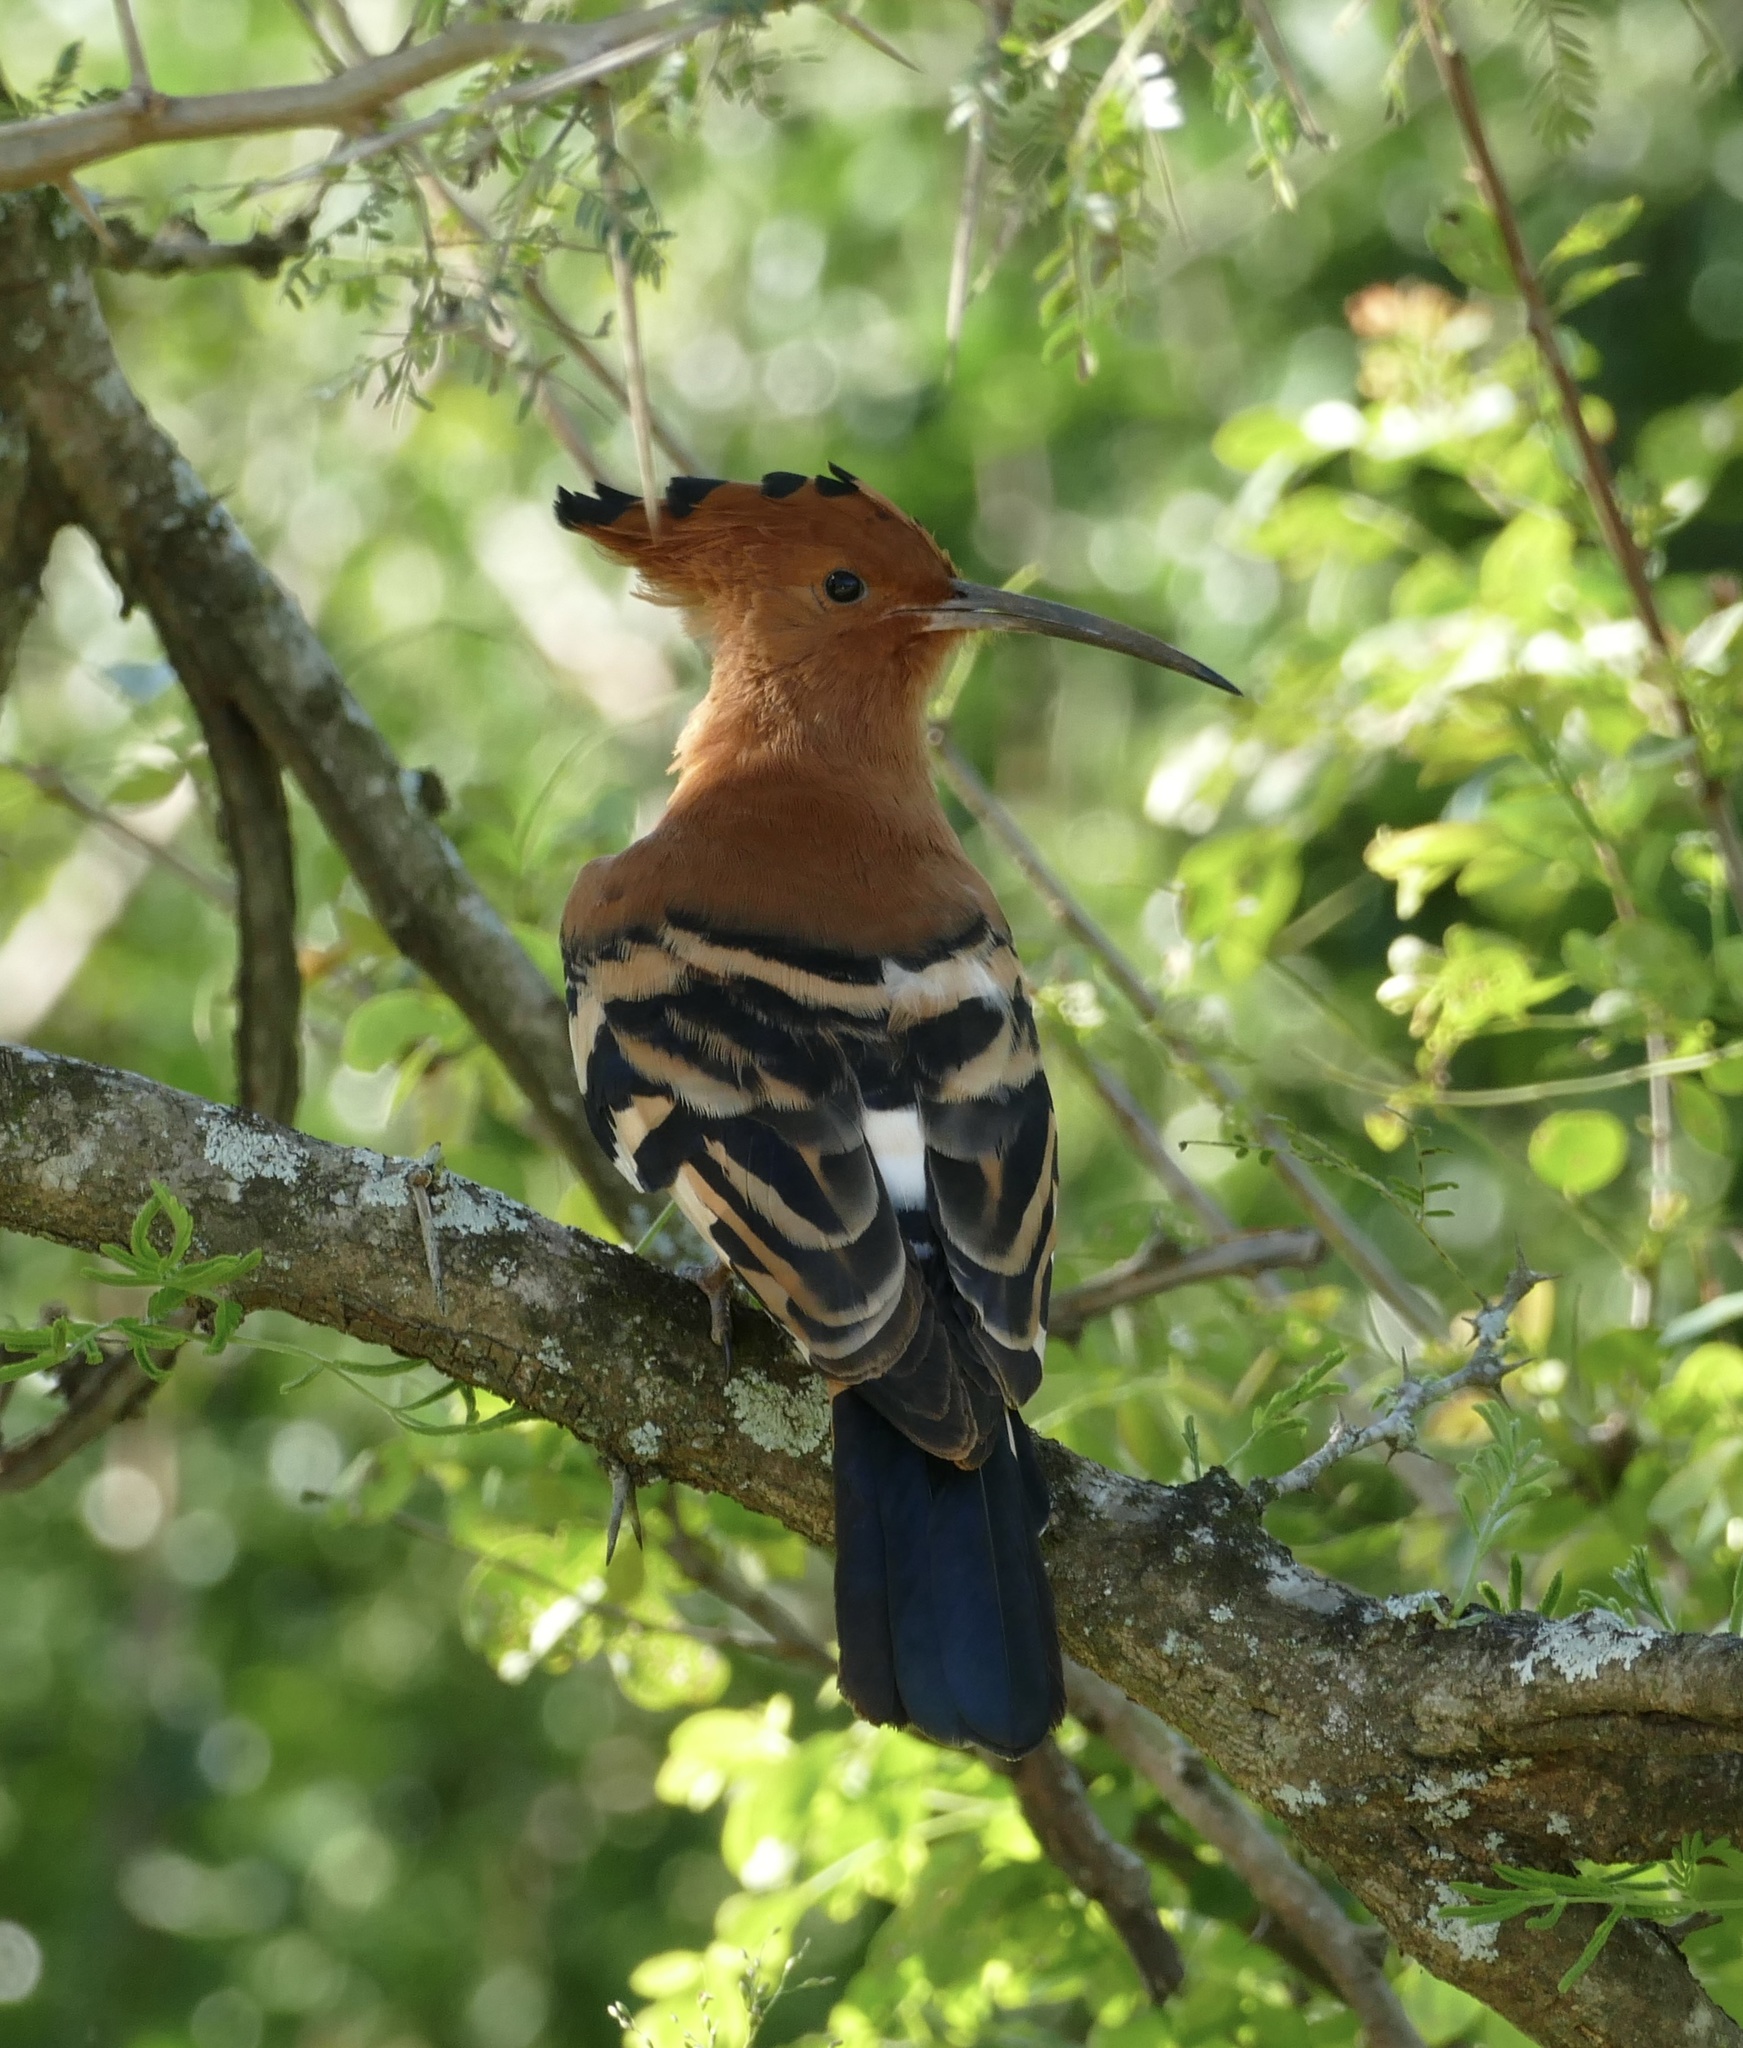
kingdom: Animalia
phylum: Chordata
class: Aves
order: Bucerotiformes
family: Upupidae
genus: Upupa
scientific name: Upupa africana
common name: African hoopoe
